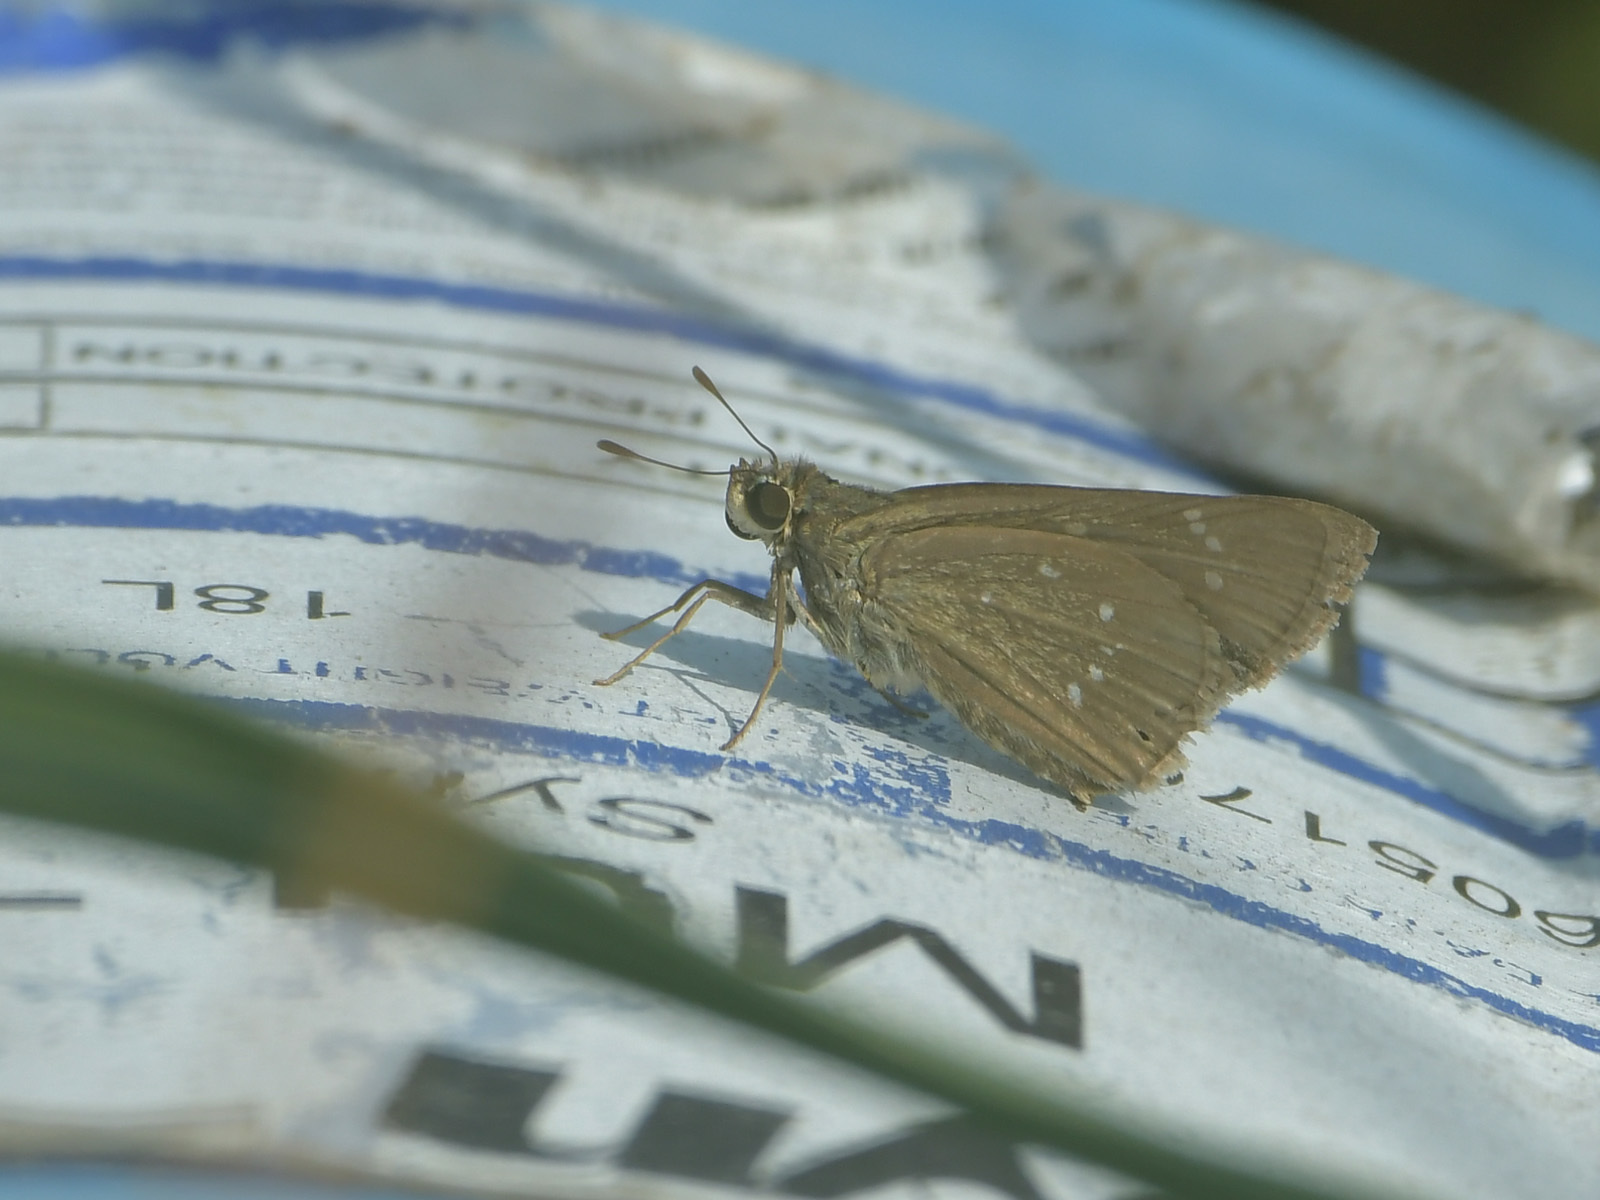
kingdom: Animalia
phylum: Arthropoda
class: Insecta
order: Lepidoptera
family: Hesperiidae
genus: Pelopidas
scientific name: Pelopidas agna
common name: Little branded swift
